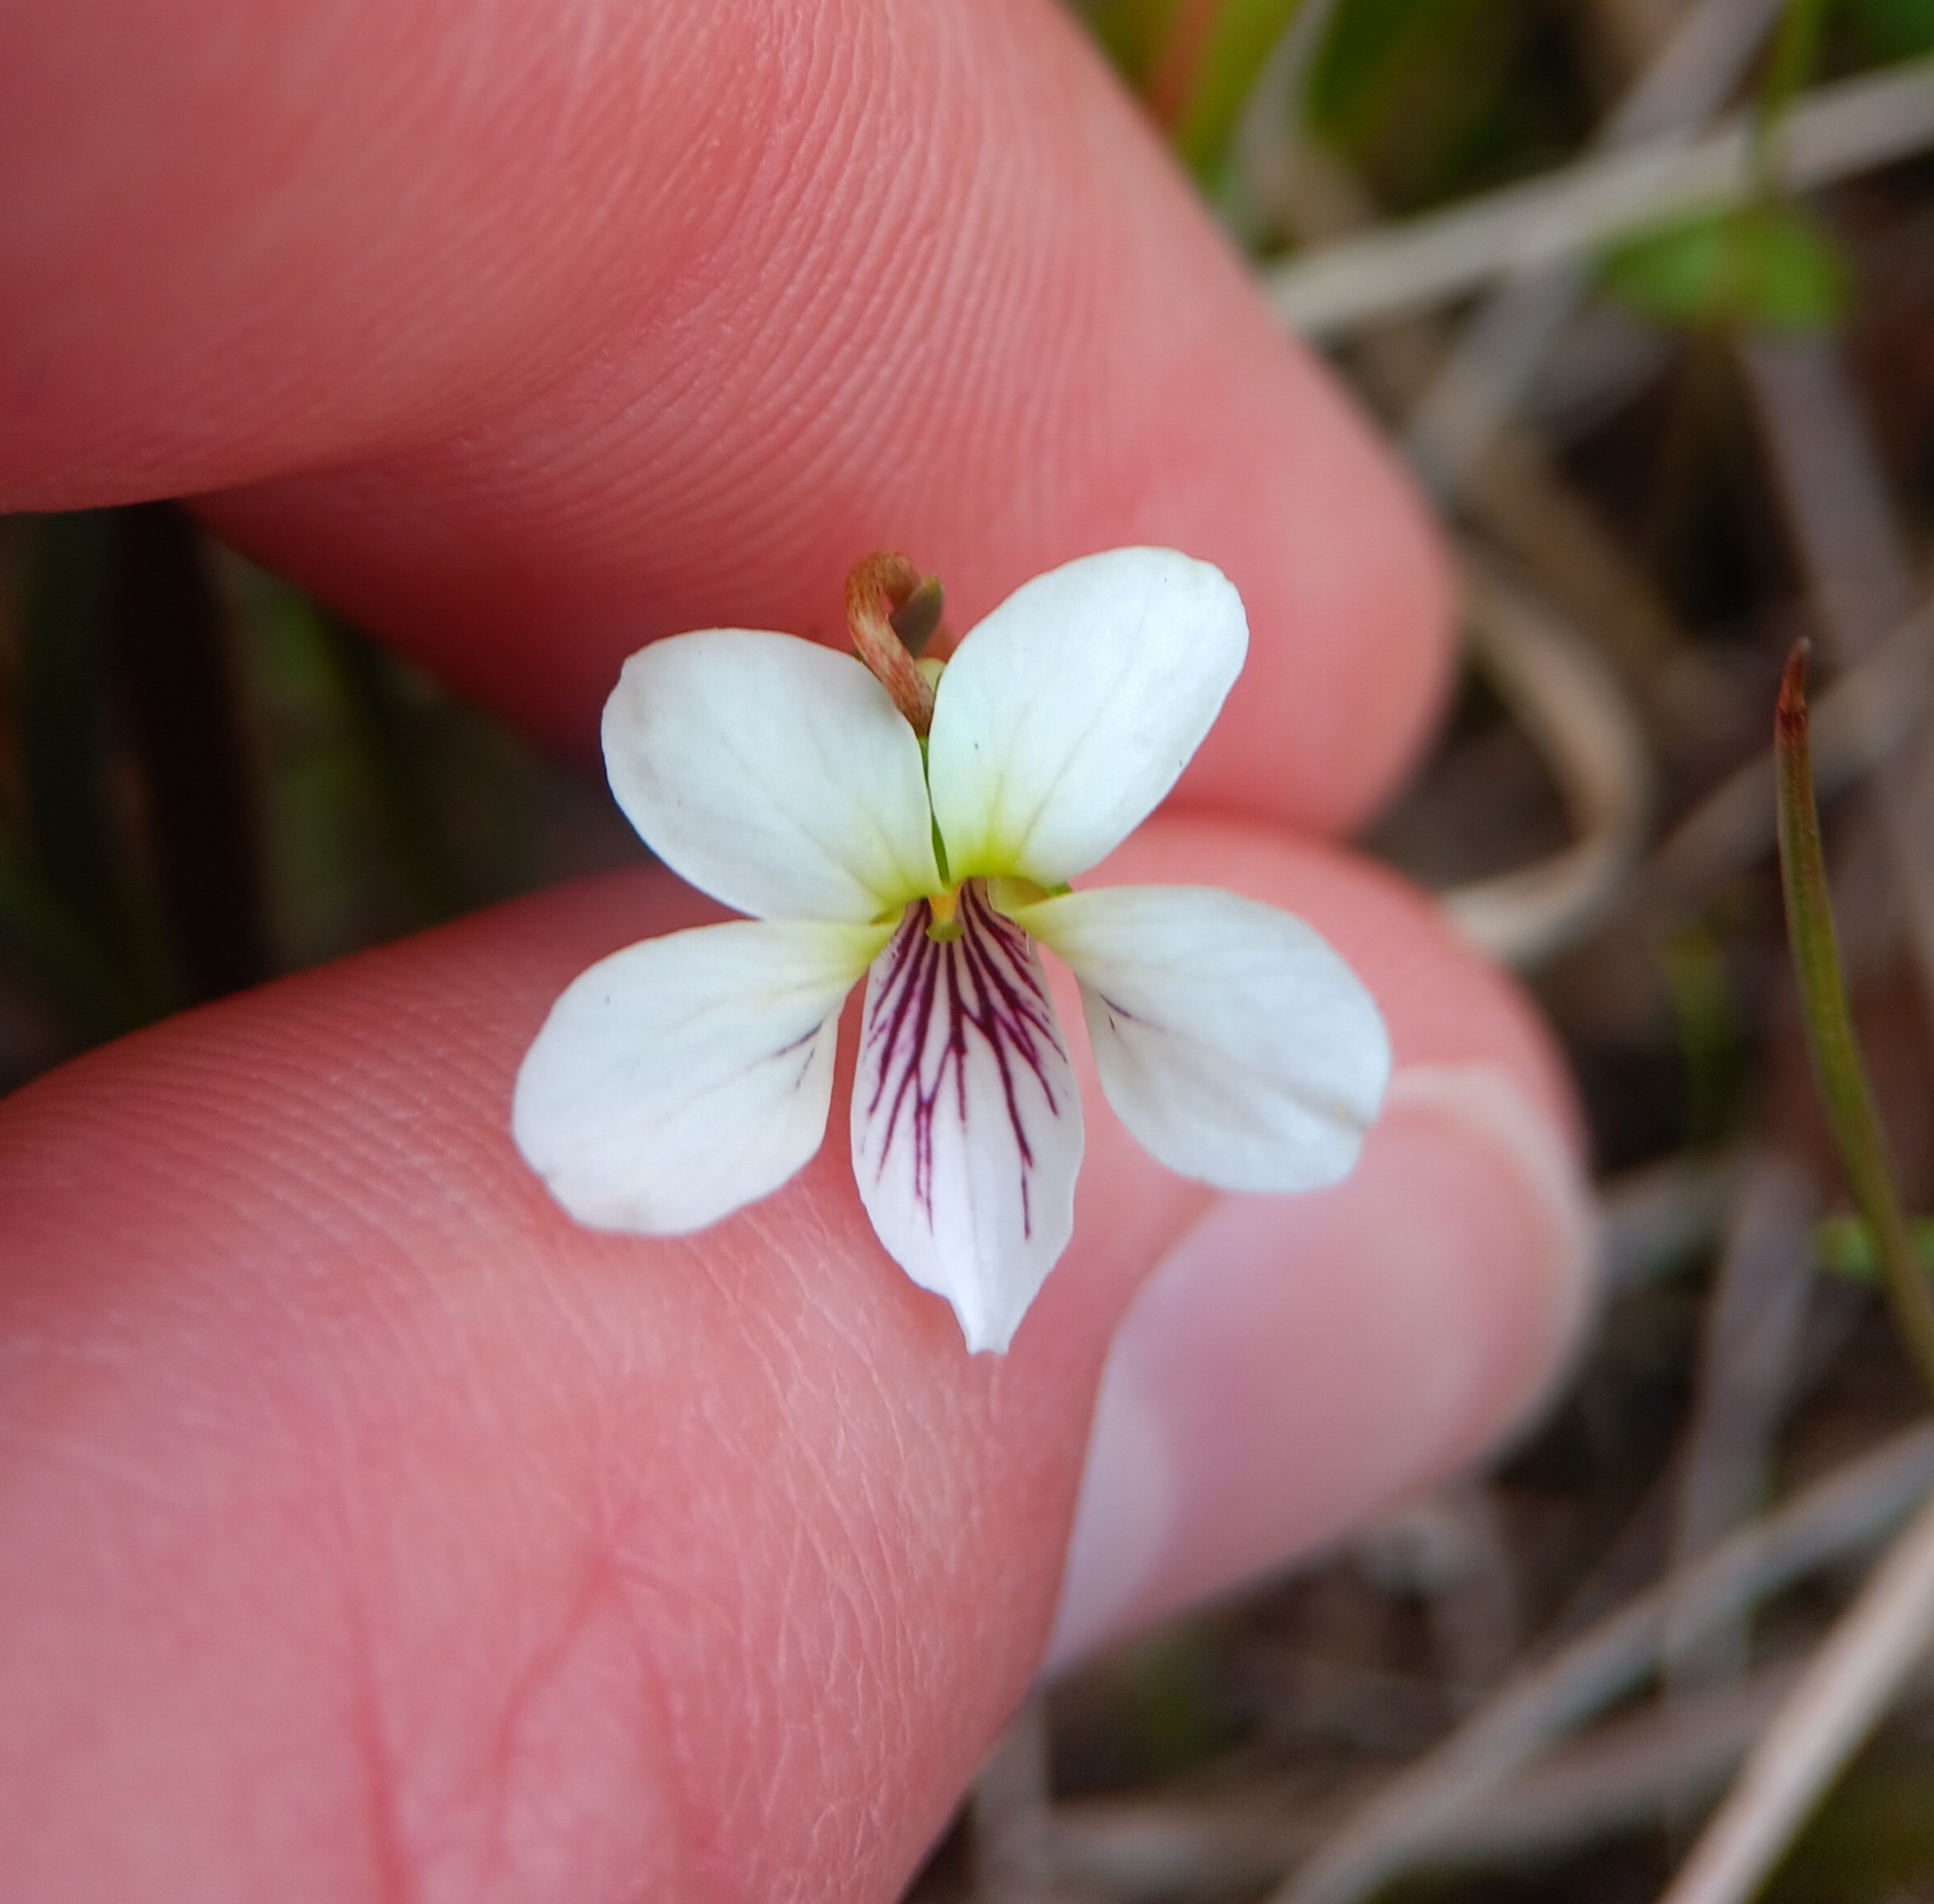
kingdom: Plantae
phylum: Tracheophyta
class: Magnoliopsida
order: Malpighiales
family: Violaceae
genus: Viola
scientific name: Viola lanceolata
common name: Bog white violet
